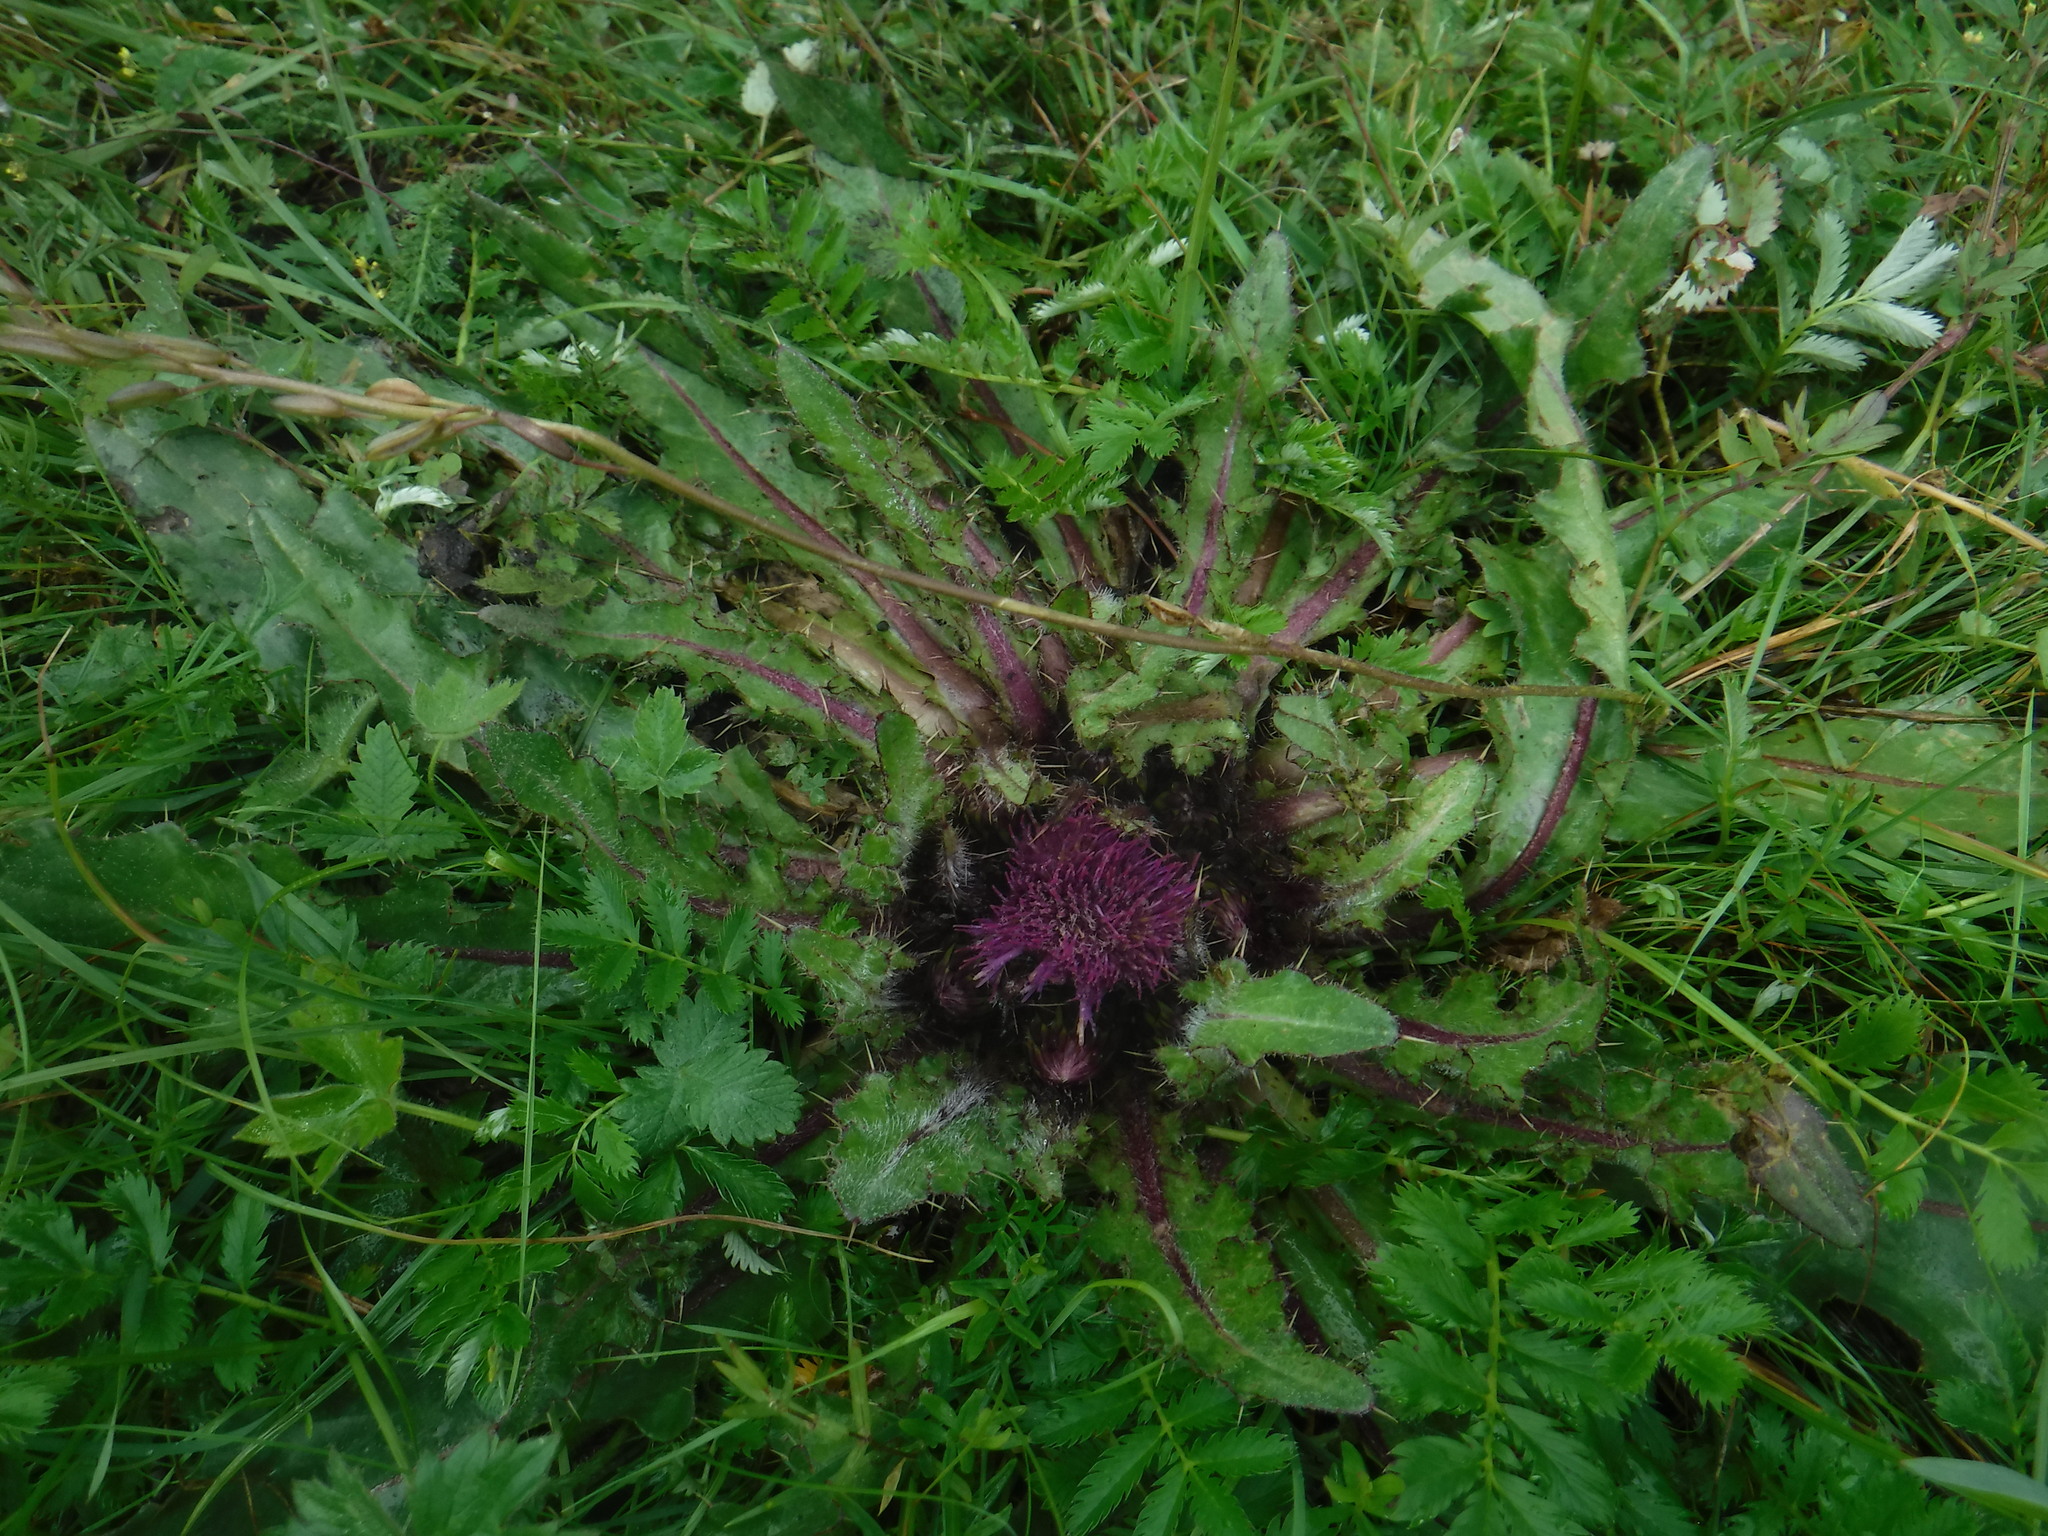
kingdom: Plantae
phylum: Tracheophyta
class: Magnoliopsida
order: Asterales
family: Asteraceae
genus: Cirsium
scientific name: Cirsium esculentum
